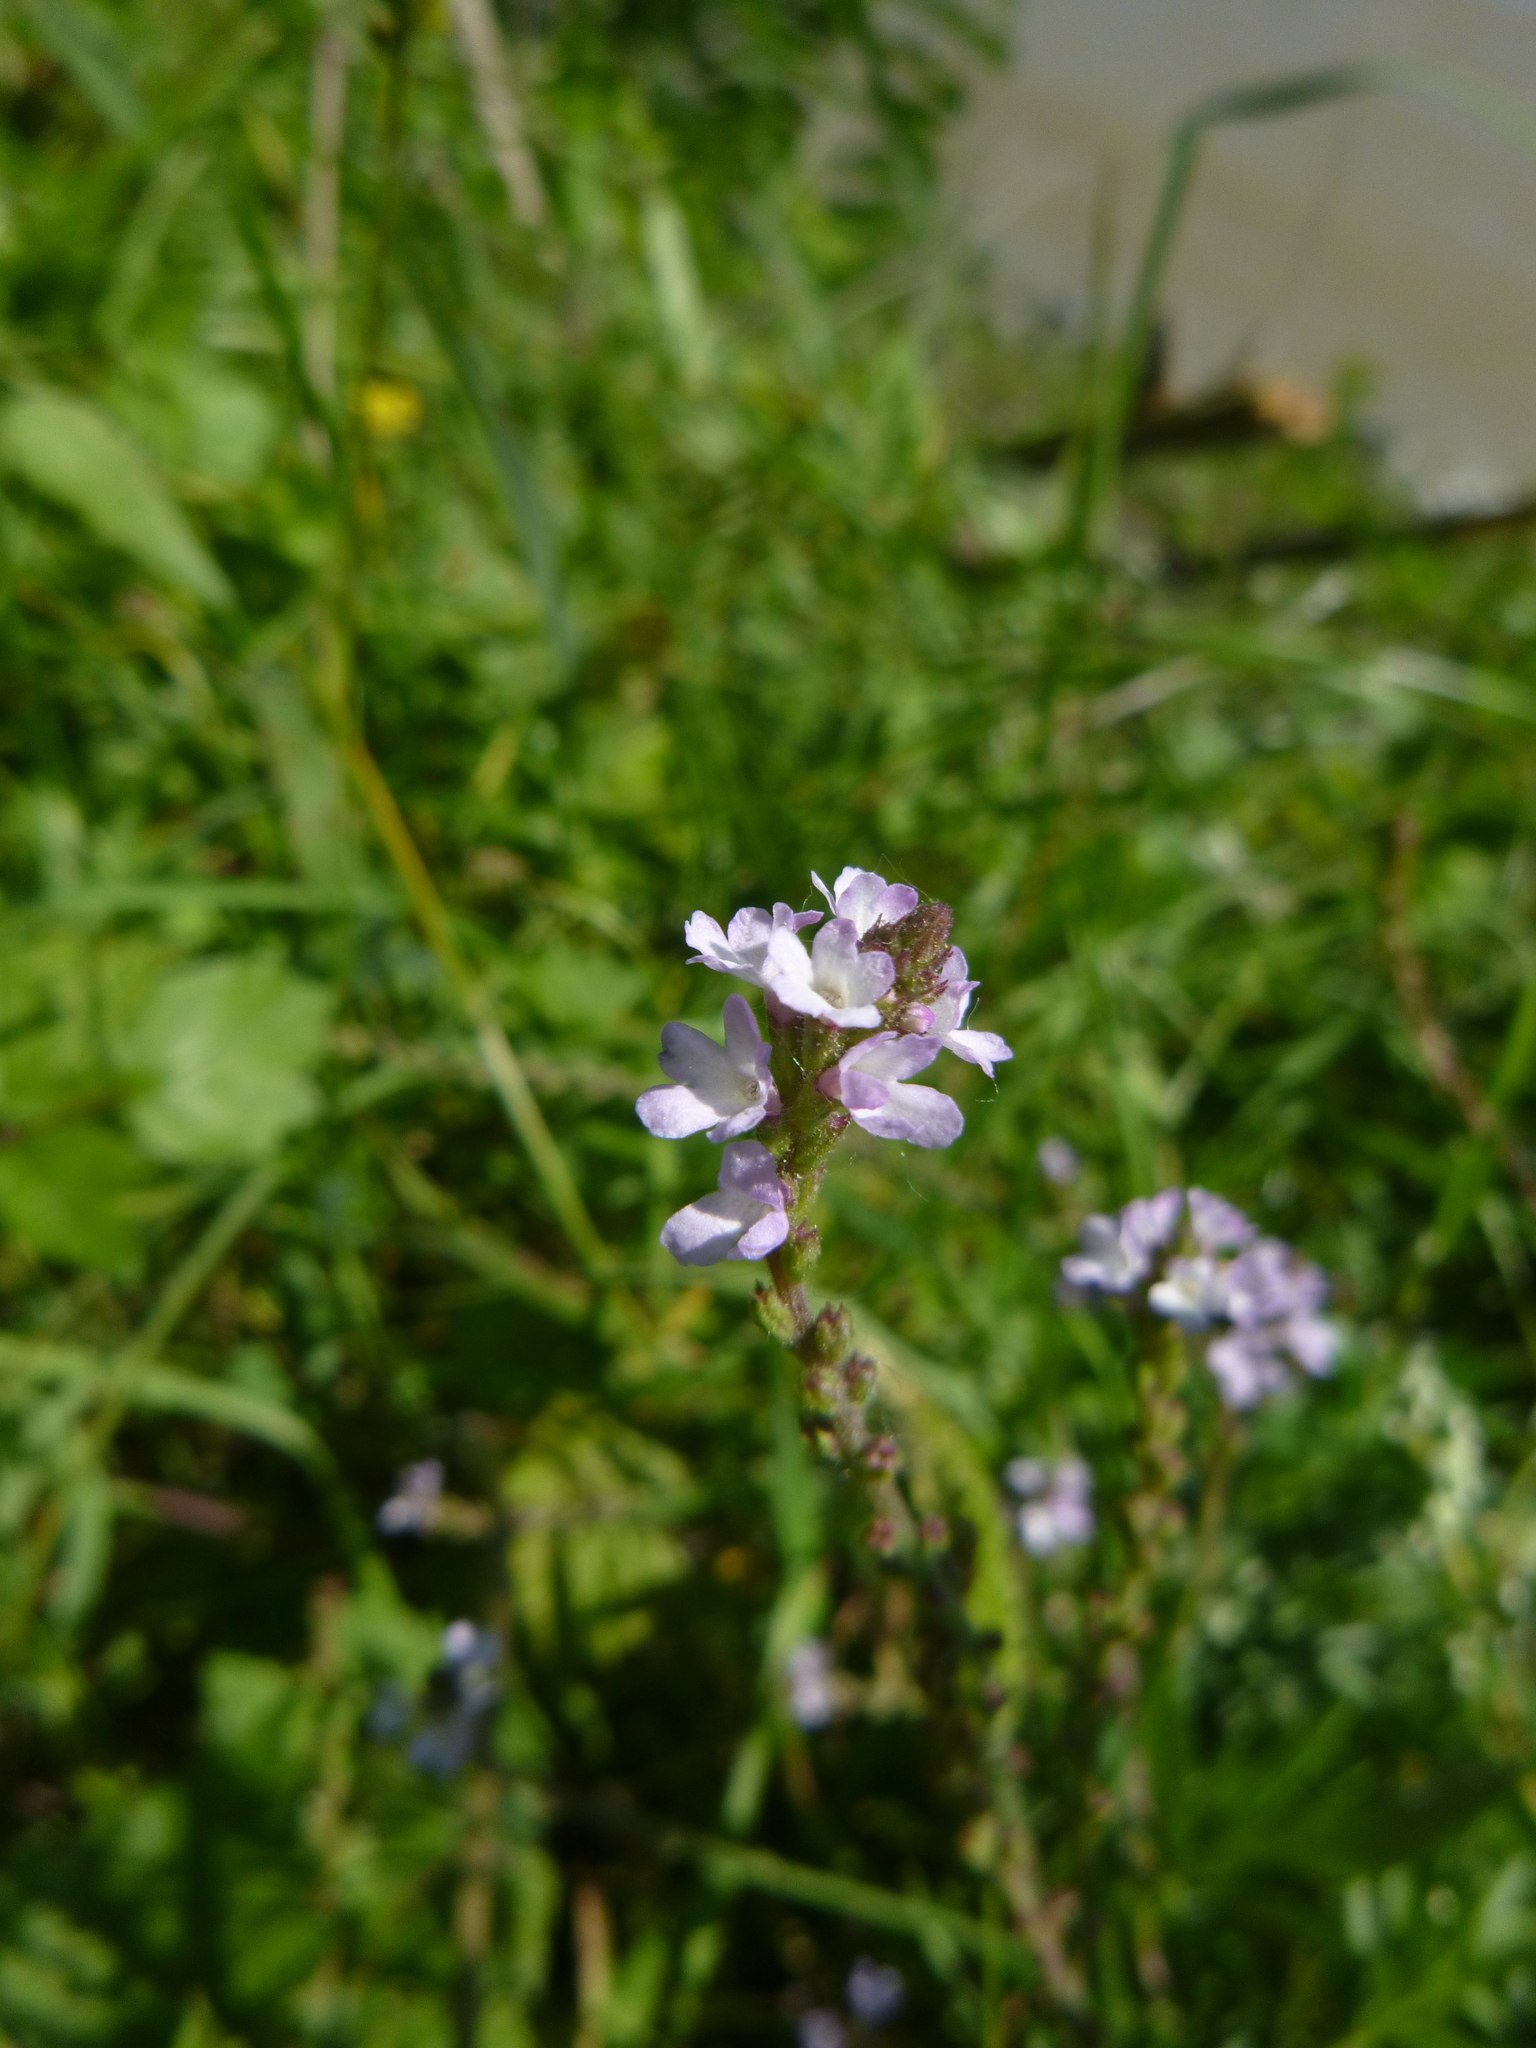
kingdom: Plantae
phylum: Tracheophyta
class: Magnoliopsida
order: Lamiales
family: Verbenaceae
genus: Verbena
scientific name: Verbena officinalis
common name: Vervain
